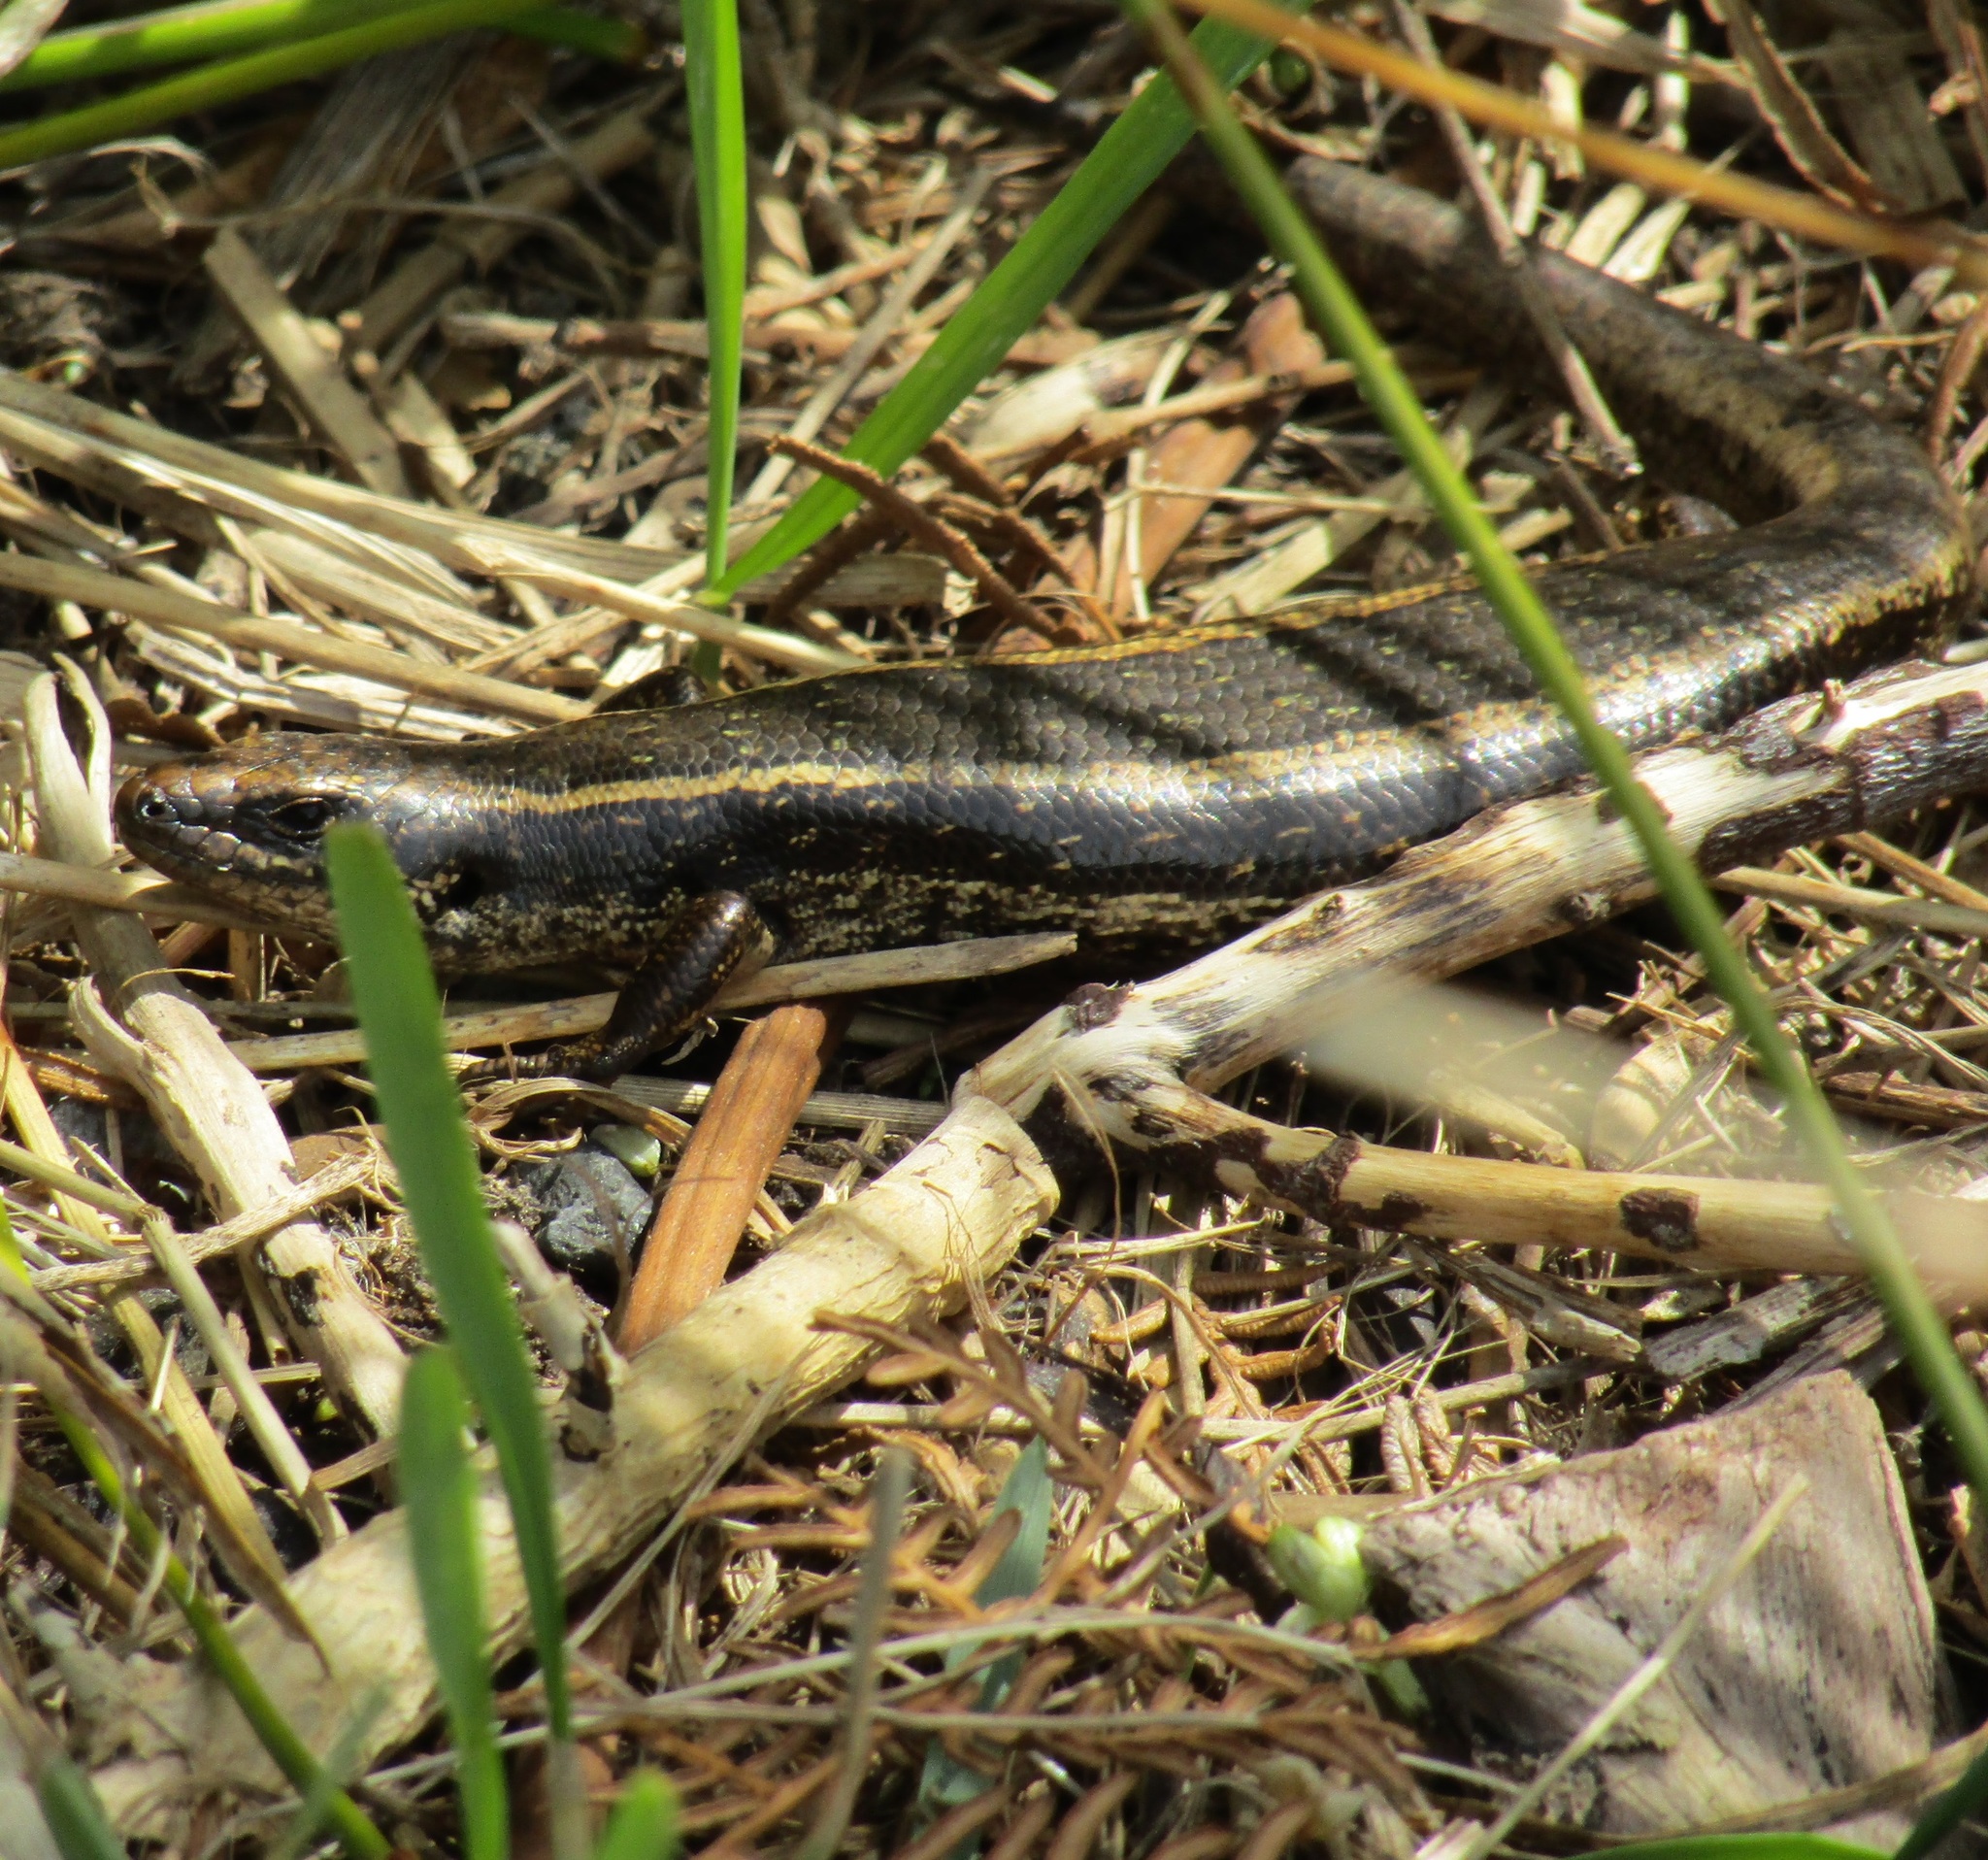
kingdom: Animalia
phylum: Chordata
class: Squamata
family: Scincidae
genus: Oligosoma
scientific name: Oligosoma kokowai
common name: Northern spotted skink
